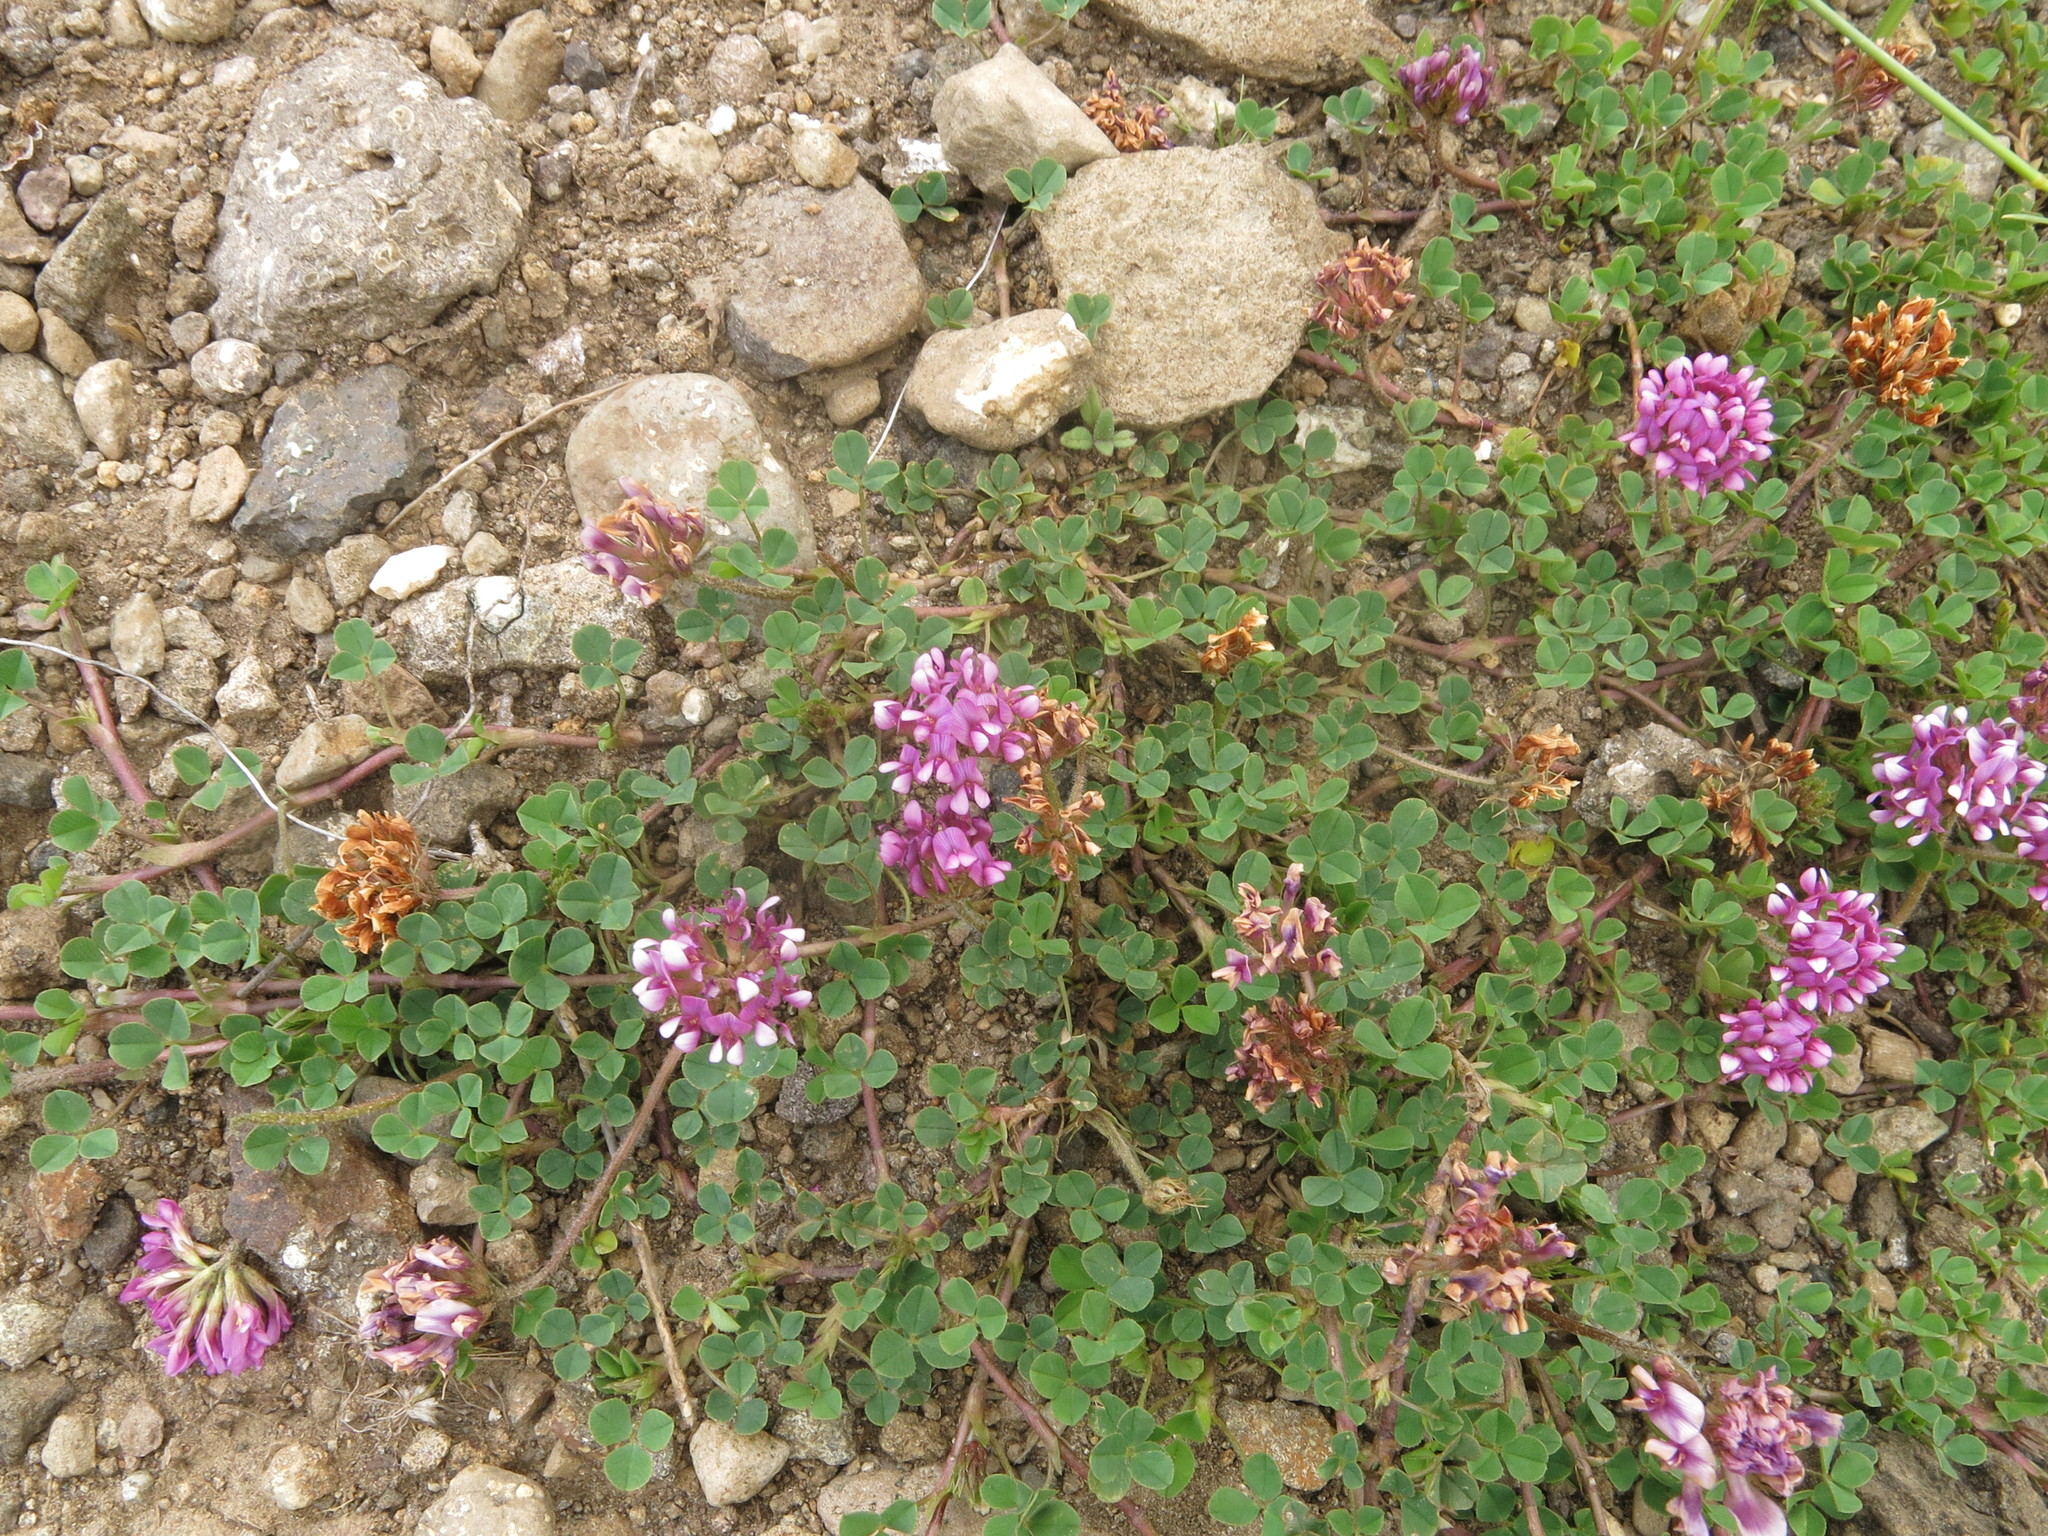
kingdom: Plantae
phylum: Tracheophyta
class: Magnoliopsida
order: Fabales
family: Fabaceae
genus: Trifolium
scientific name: Trifolium burchellianum
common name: Burchell's clover
